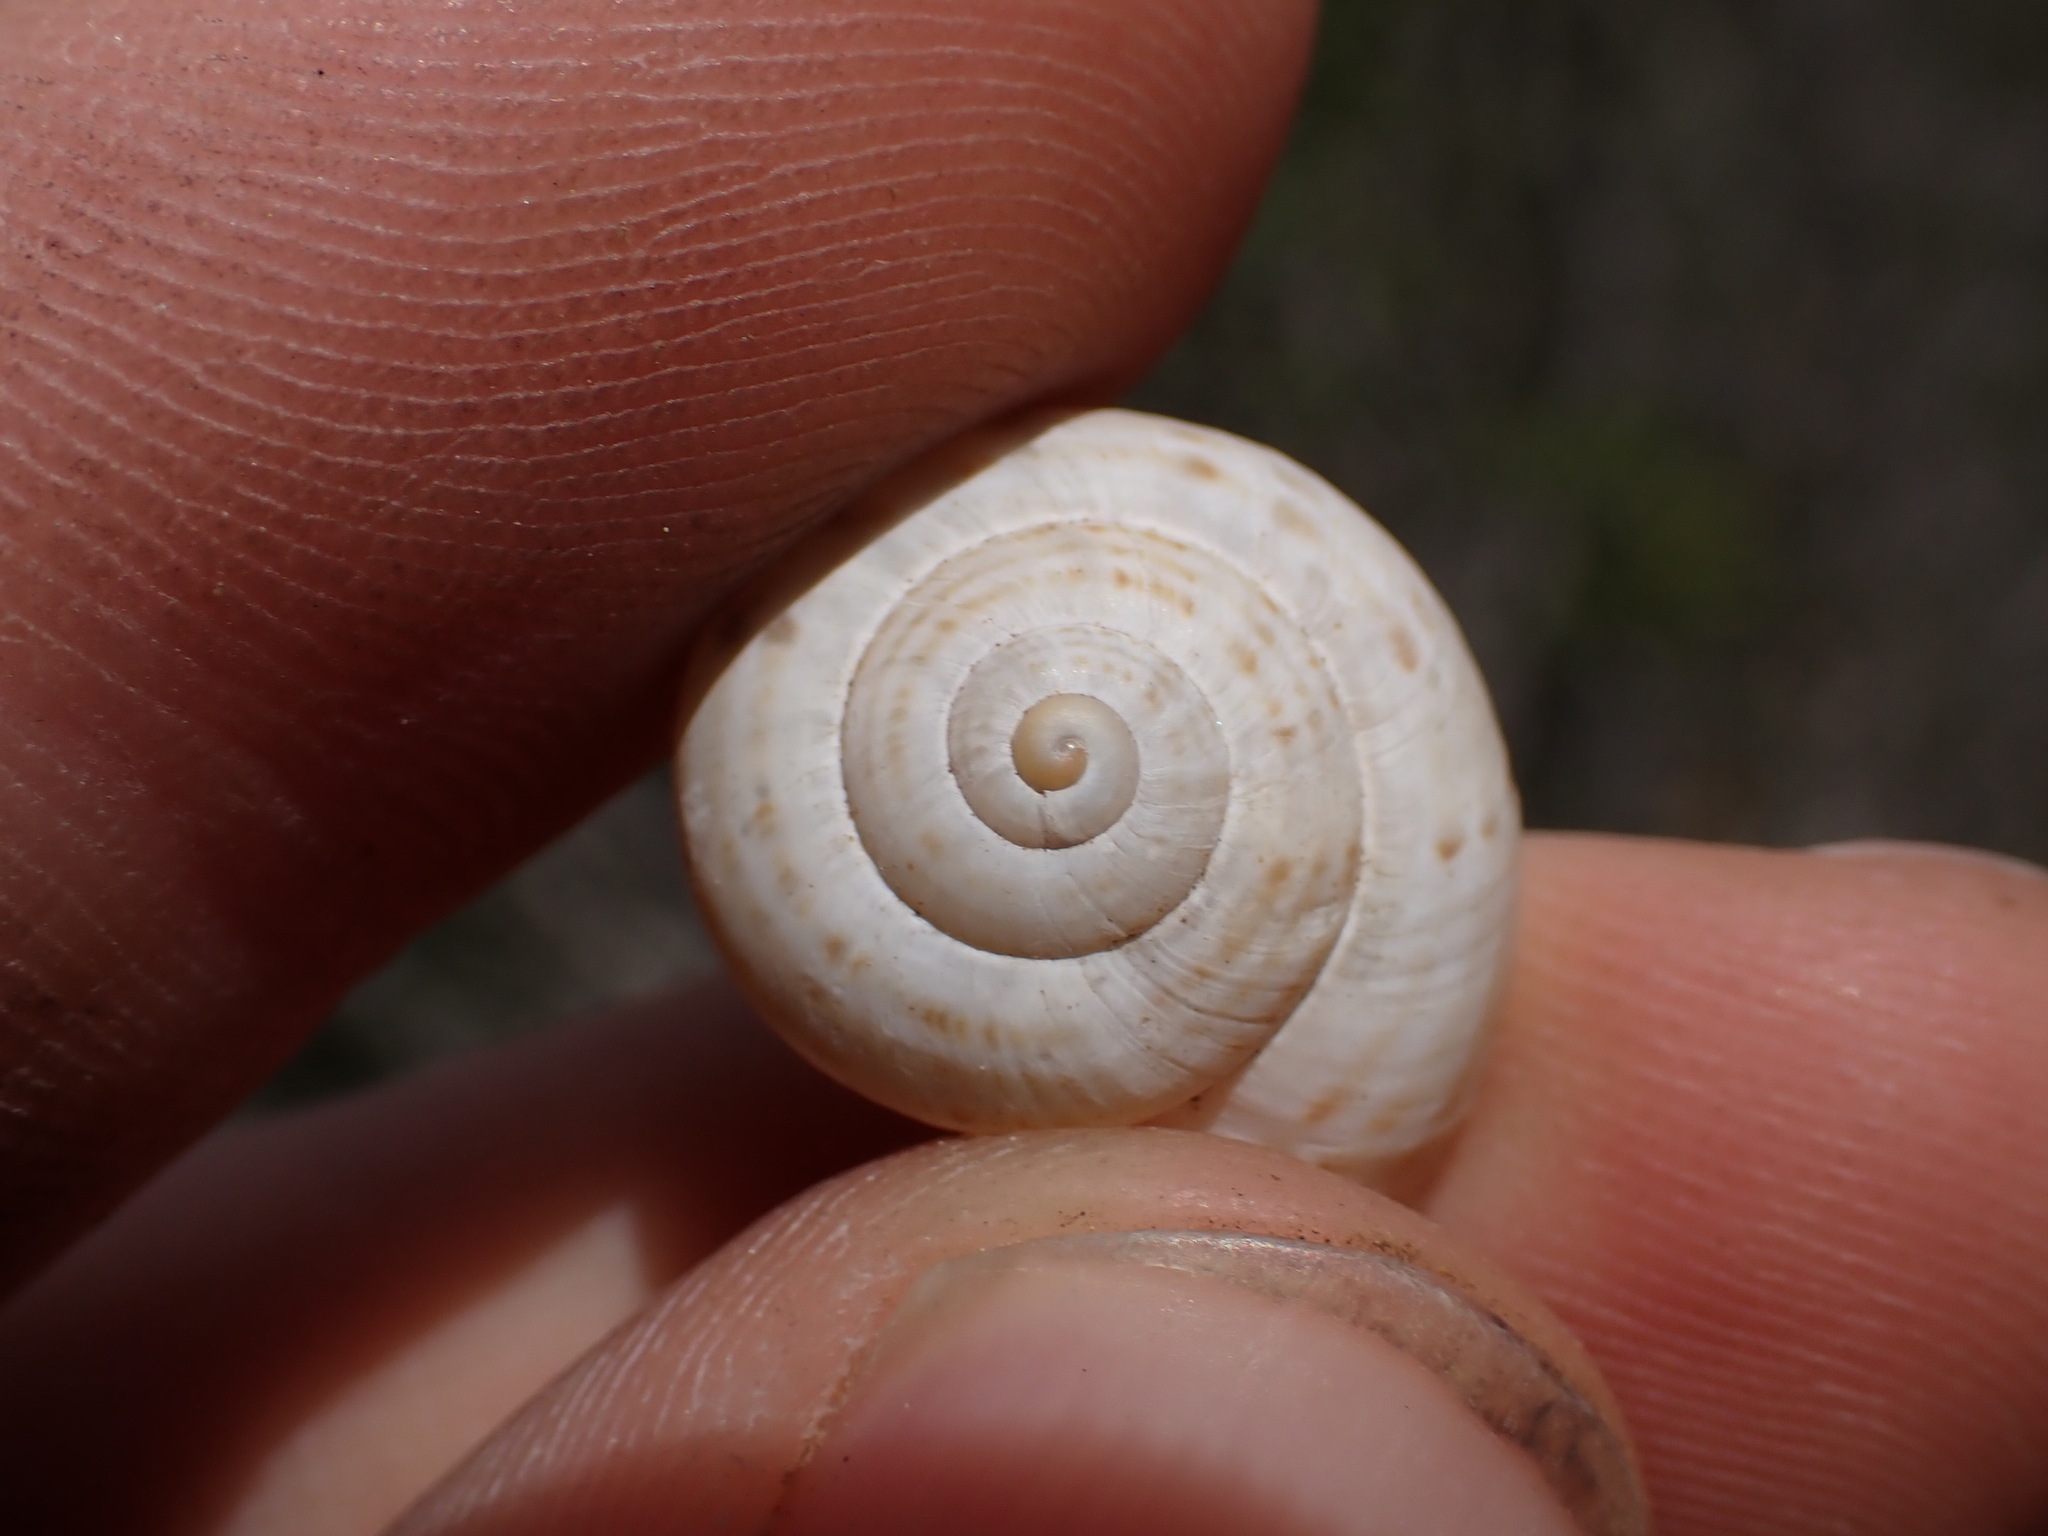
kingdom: Animalia
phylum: Mollusca
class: Gastropoda
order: Stylommatophora
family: Helicidae
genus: Pseudotachea
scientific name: Pseudotachea splendida
